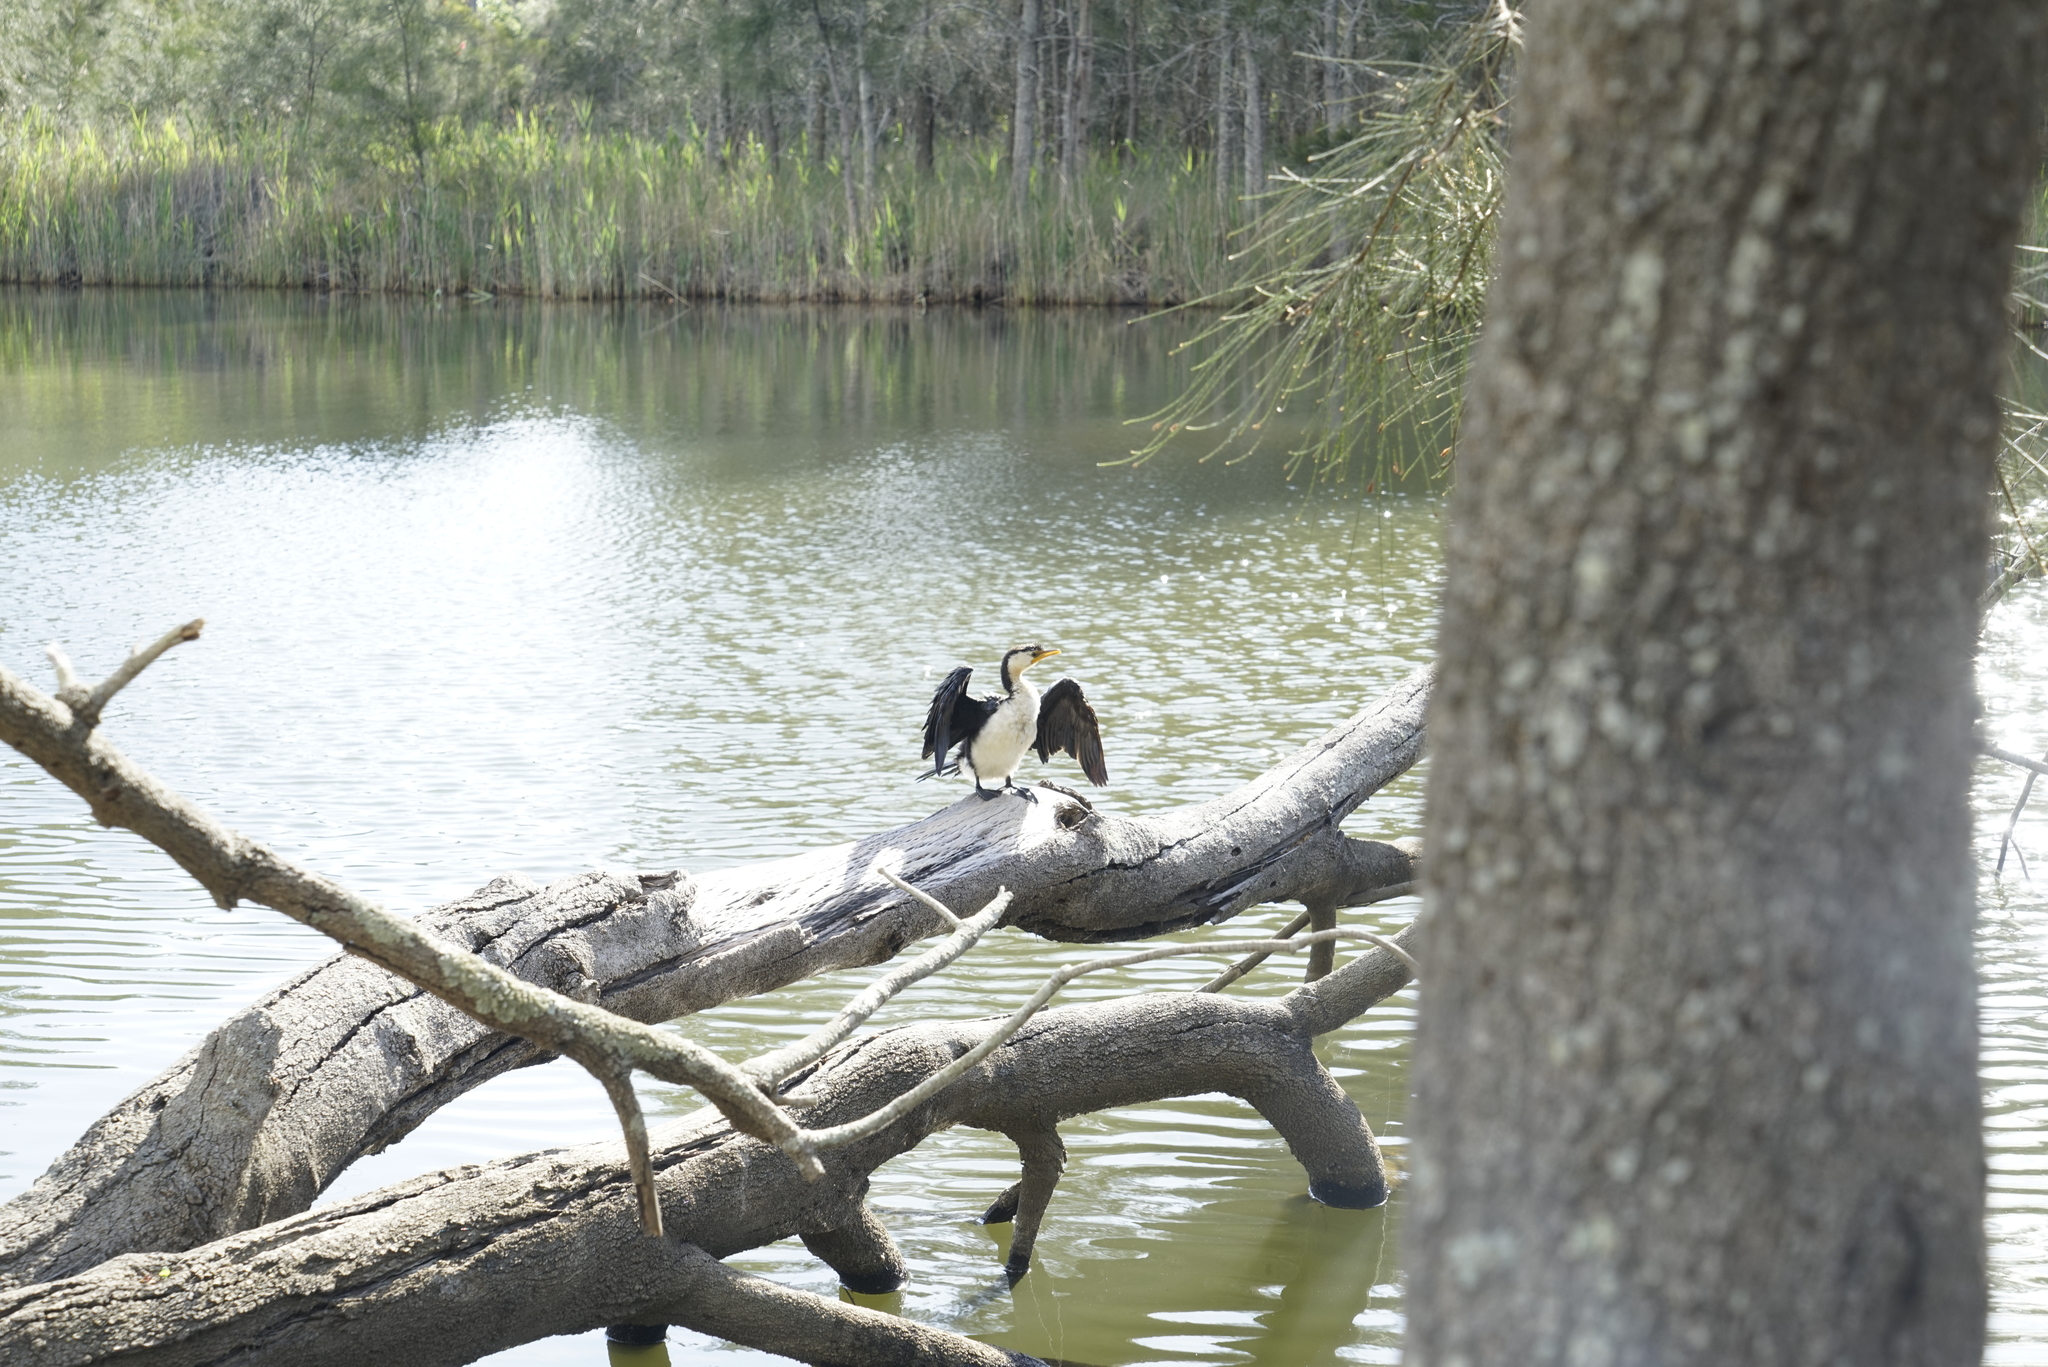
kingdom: Animalia
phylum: Chordata
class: Aves
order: Suliformes
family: Phalacrocoracidae
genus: Microcarbo
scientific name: Microcarbo melanoleucos
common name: Little pied cormorant
